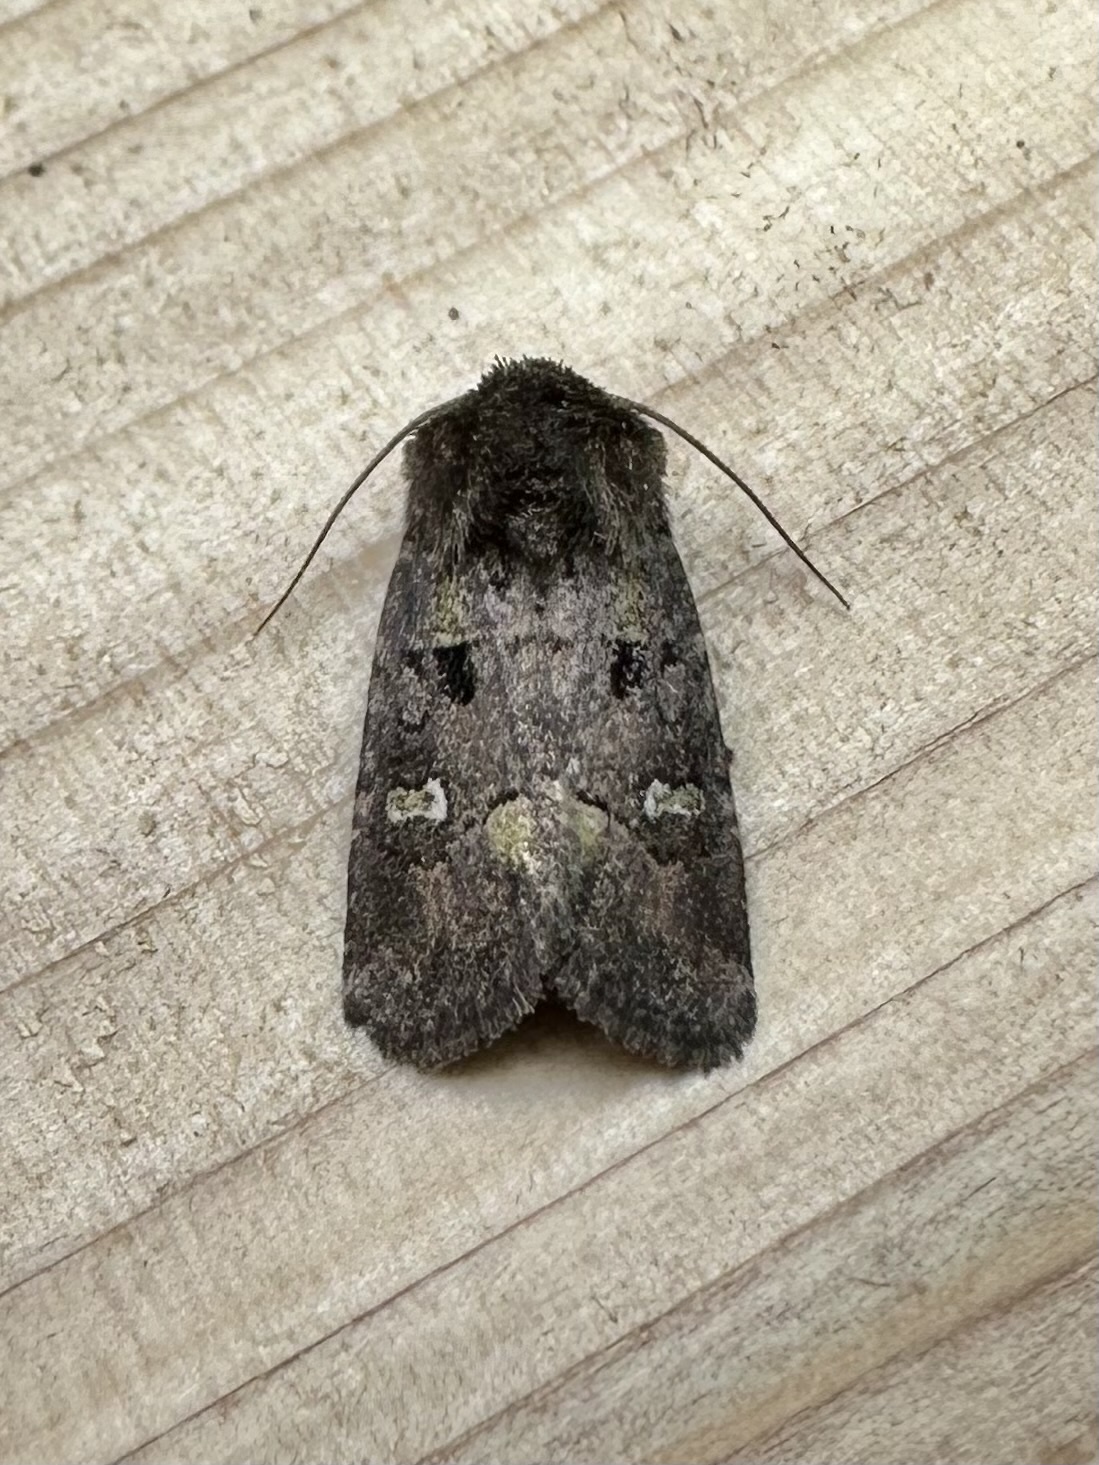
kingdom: Animalia
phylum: Arthropoda
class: Insecta
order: Lepidoptera
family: Noctuidae
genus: Lacinipolia
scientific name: Lacinipolia renigera
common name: Kidney-spotted minor
